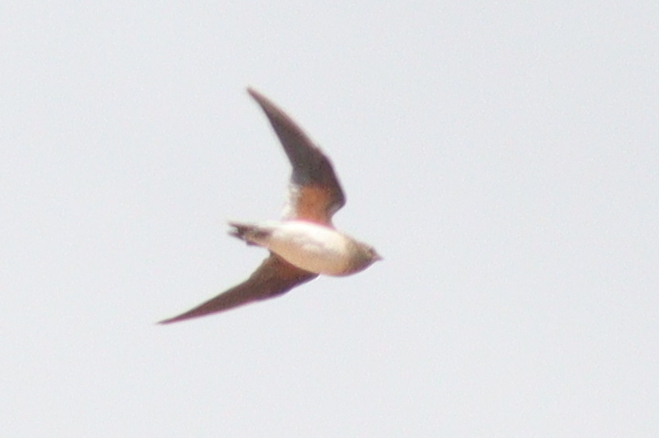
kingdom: Animalia
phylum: Chordata
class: Aves
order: Charadriiformes
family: Glareolidae
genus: Glareola
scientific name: Glareola pratincola
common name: Collared pratincole
